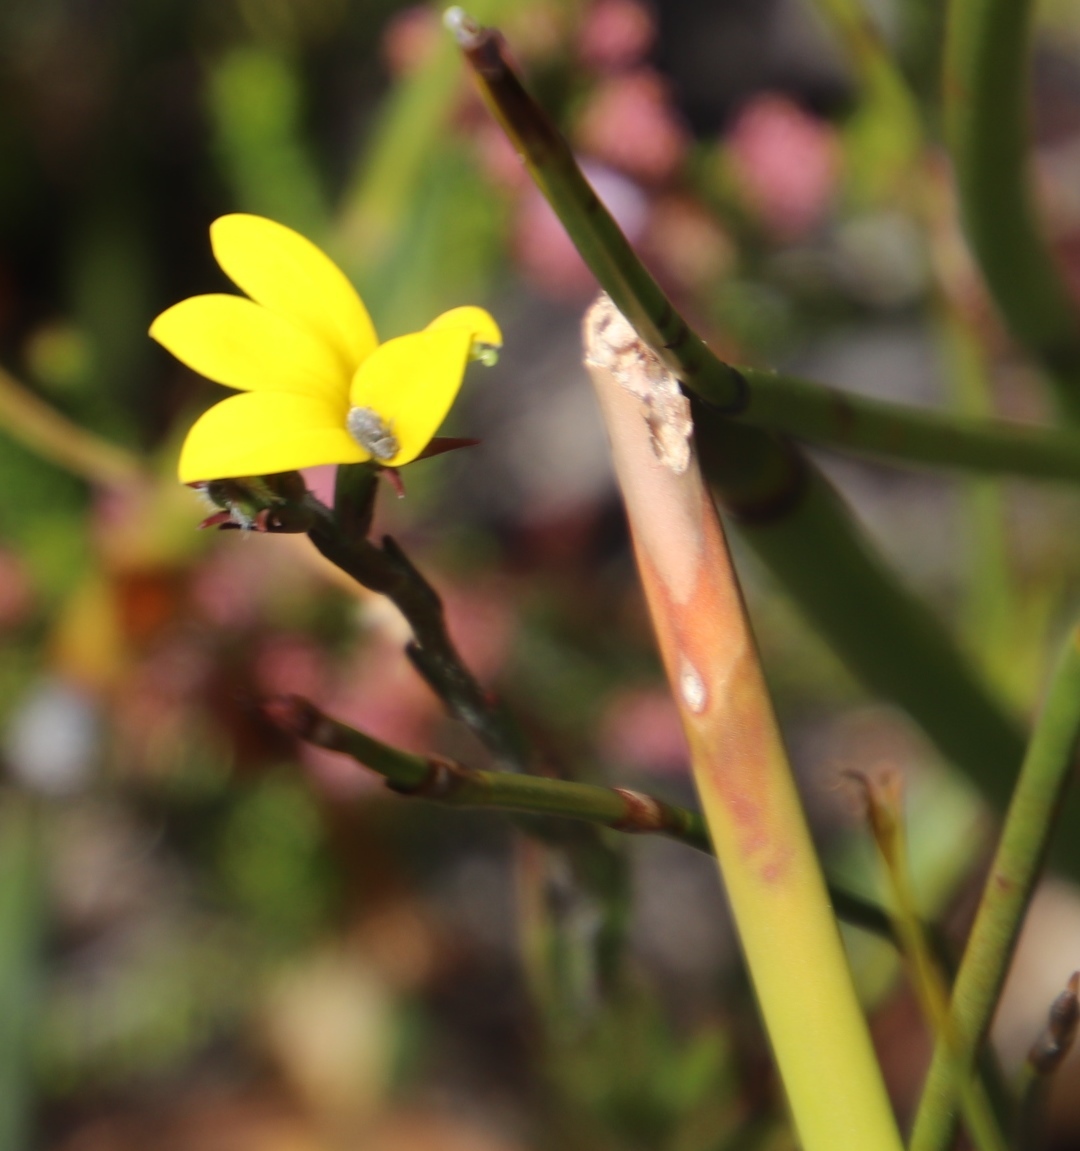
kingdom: Plantae
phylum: Tracheophyta
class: Magnoliopsida
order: Asterales
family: Campanulaceae
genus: Monopsis
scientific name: Monopsis lutea
